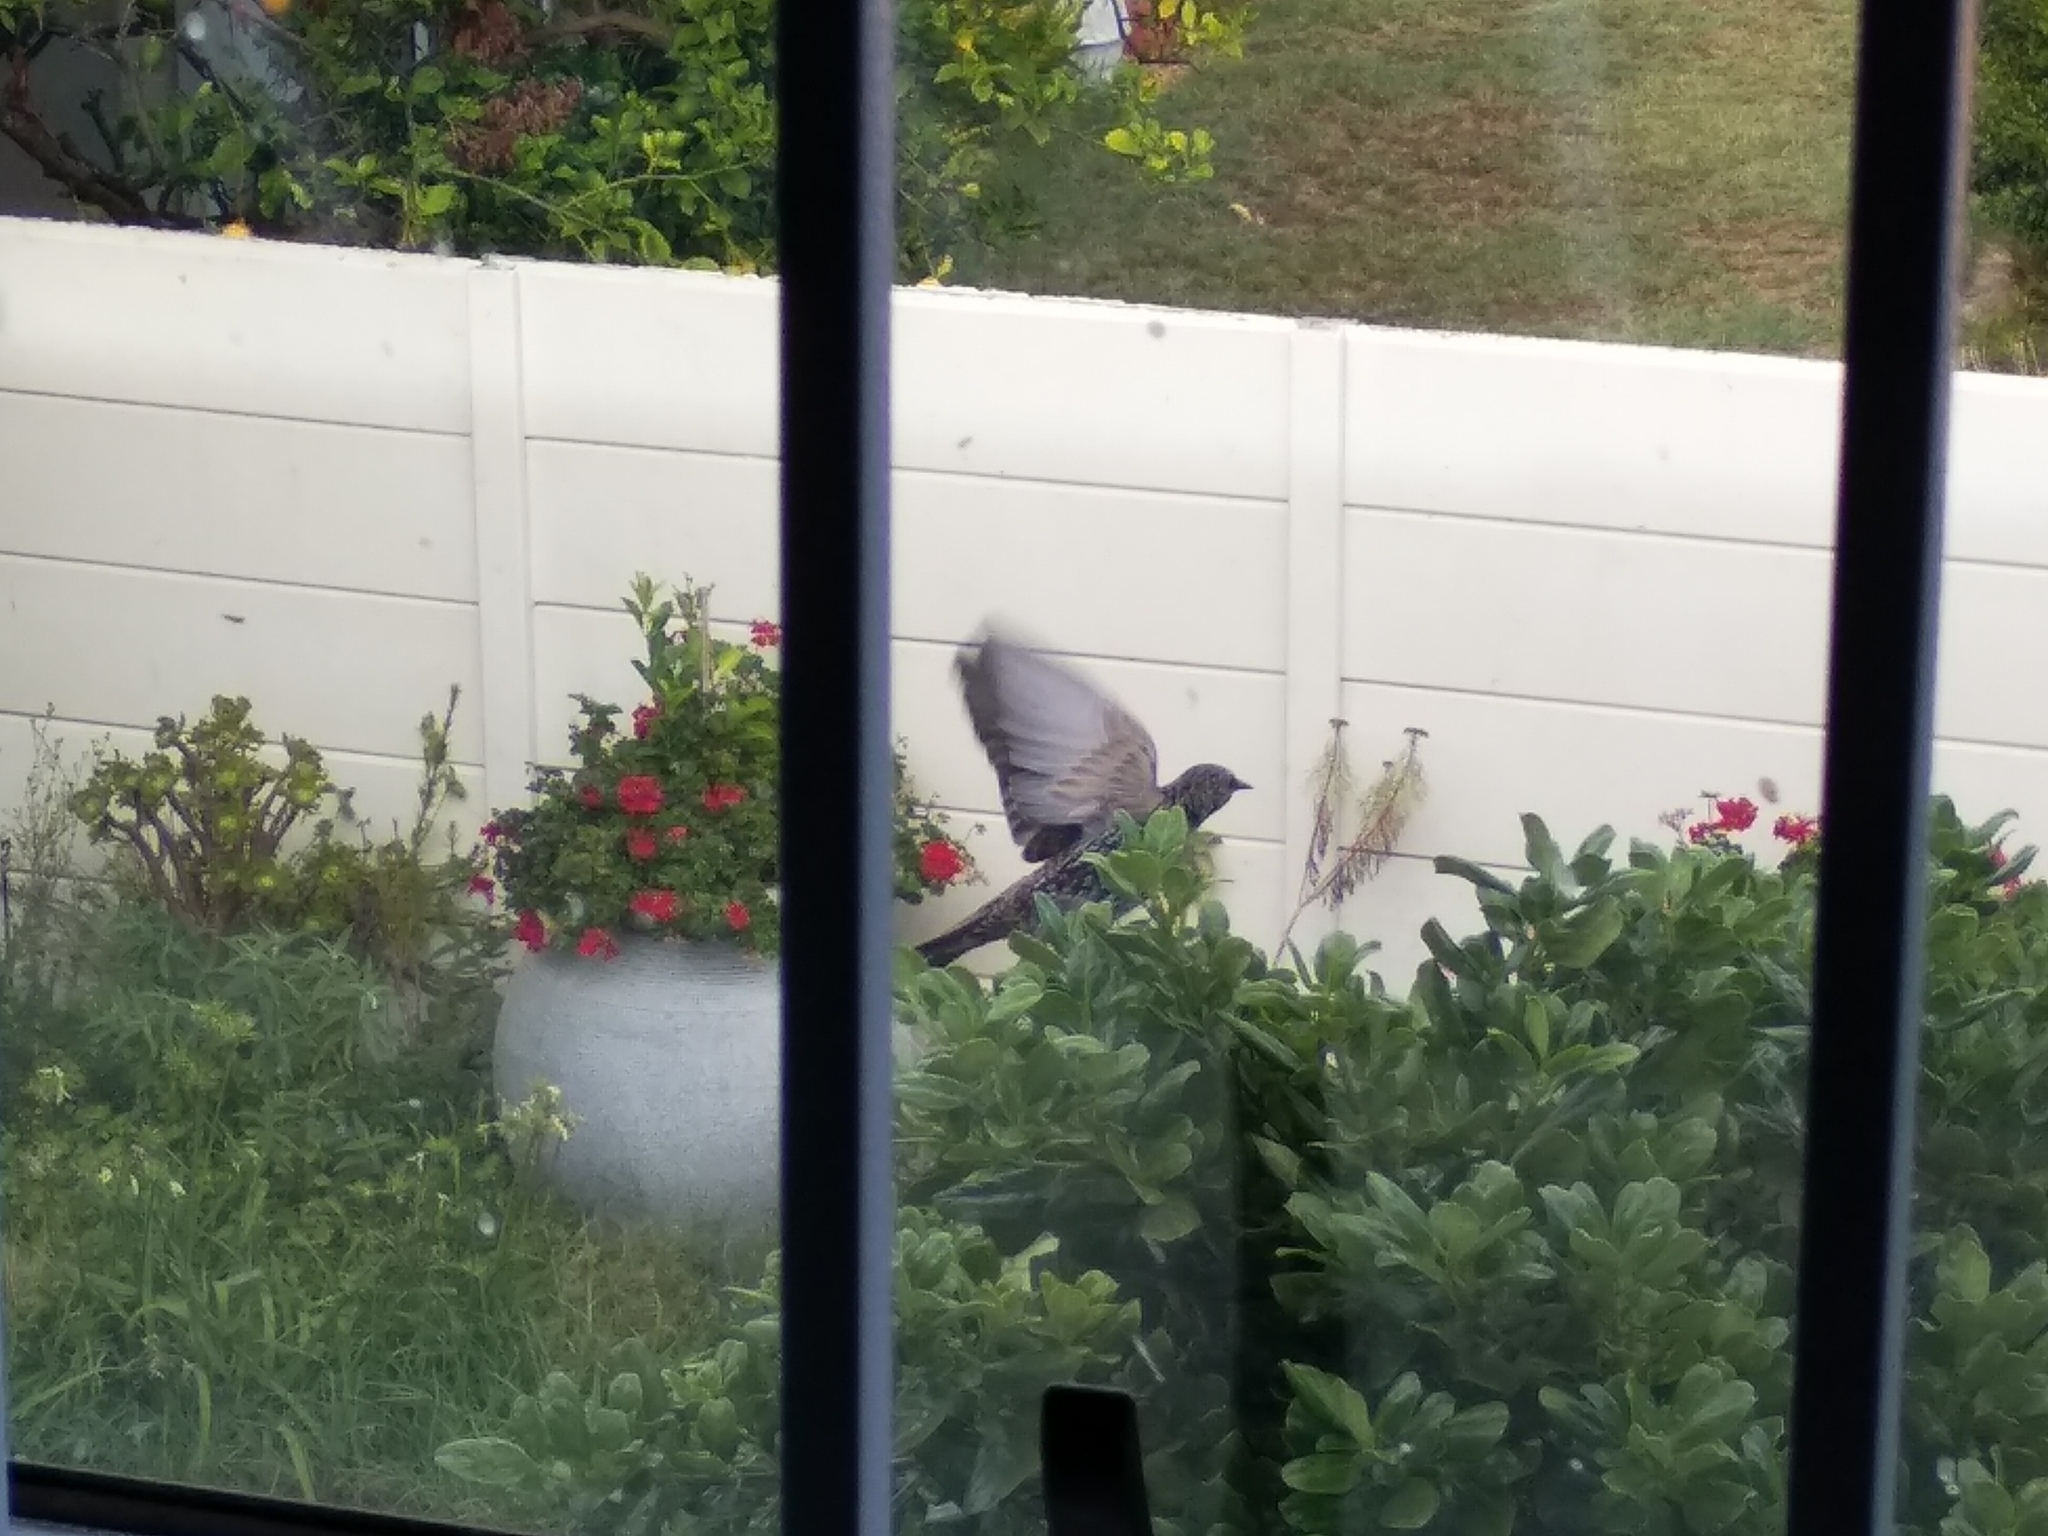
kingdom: Animalia
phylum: Chordata
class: Aves
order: Passeriformes
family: Sturnidae
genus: Sturnus
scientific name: Sturnus vulgaris
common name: Common starling
